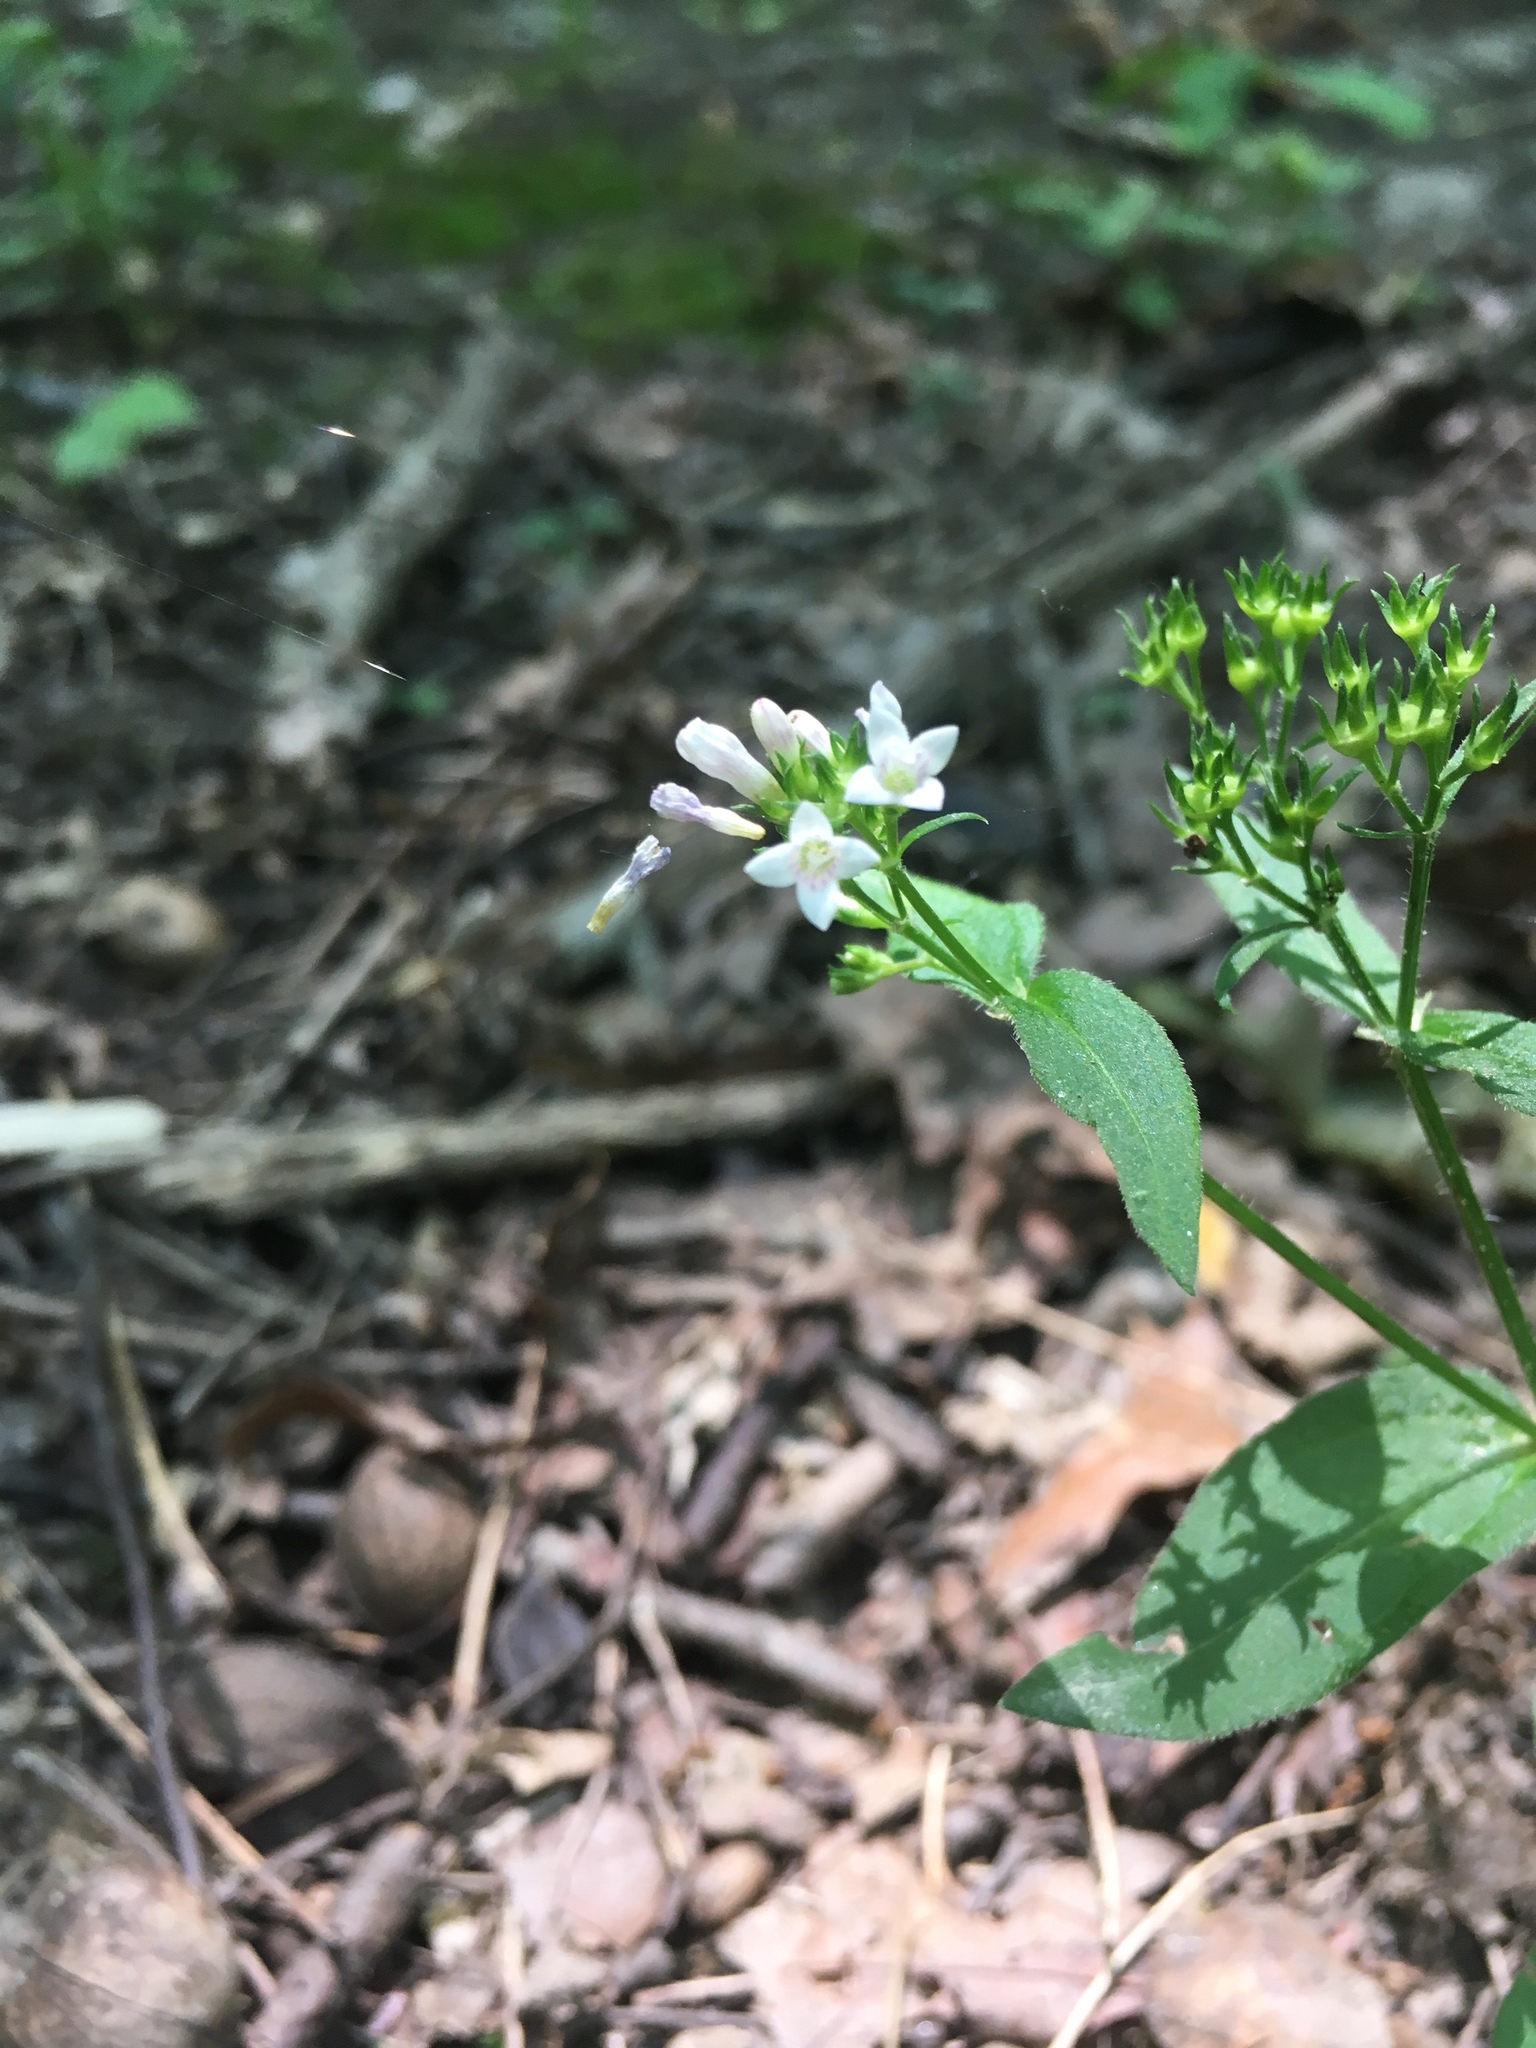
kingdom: Plantae
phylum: Tracheophyta
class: Magnoliopsida
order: Gentianales
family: Rubiaceae
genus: Houstonia
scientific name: Houstonia purpurea
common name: Summer bluet
